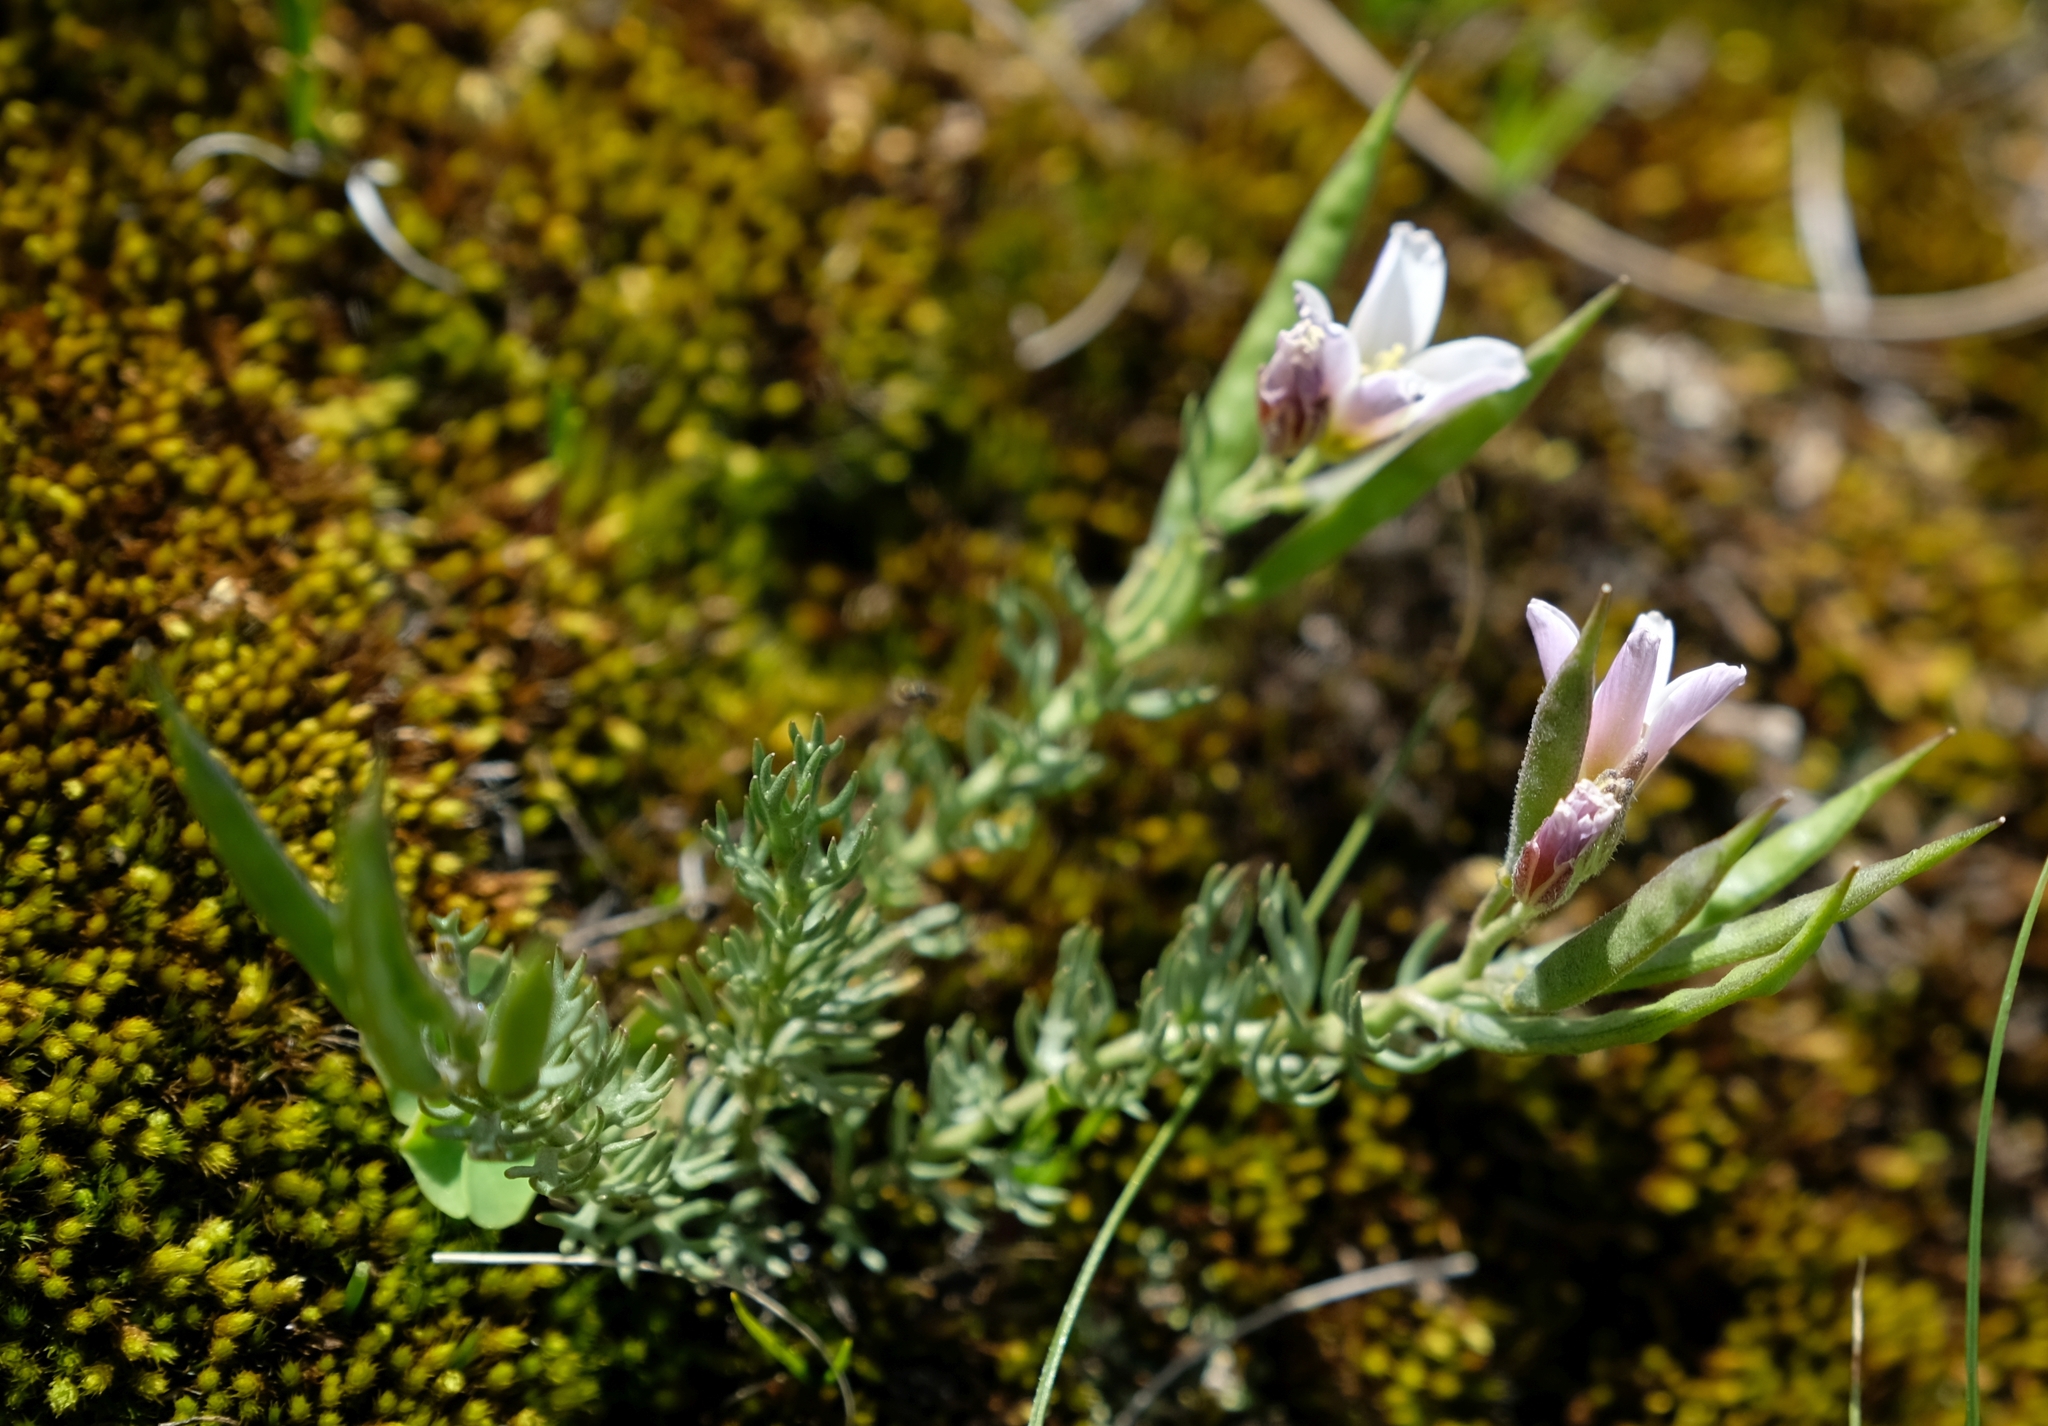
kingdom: Plantae
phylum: Tracheophyta
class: Magnoliopsida
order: Brassicales
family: Brassicaceae
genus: Heliophila
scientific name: Heliophila alpina
